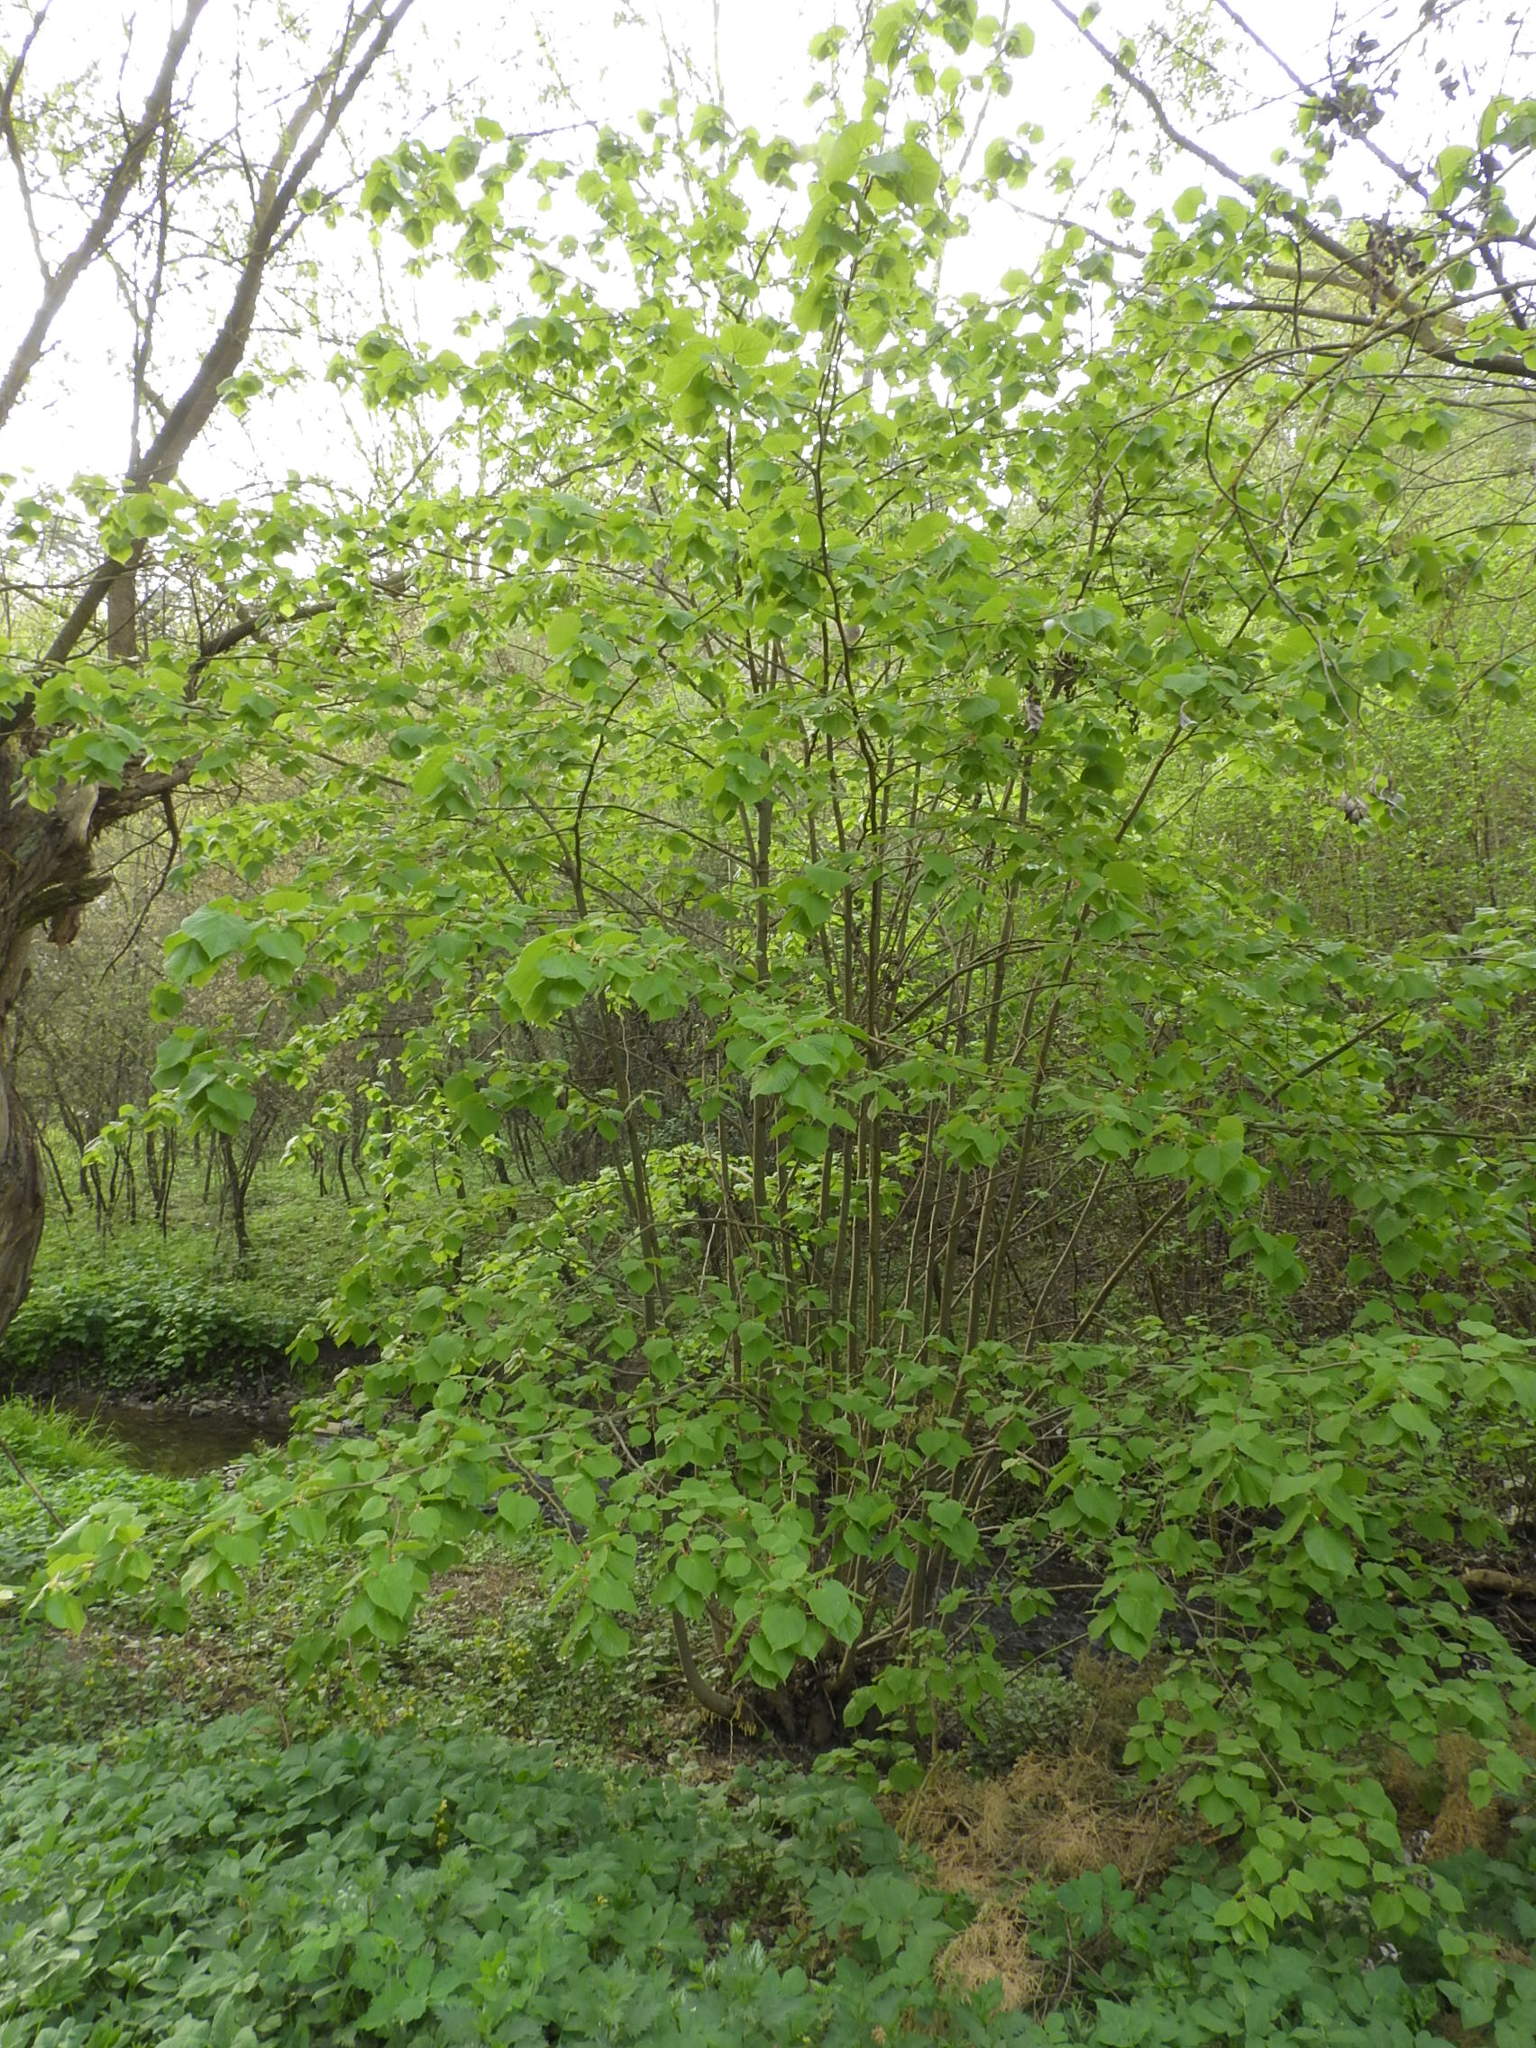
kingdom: Plantae
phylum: Tracheophyta
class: Magnoliopsida
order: Malvales
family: Malvaceae
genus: Tilia
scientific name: Tilia platyphyllos
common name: Large-leaved lime
